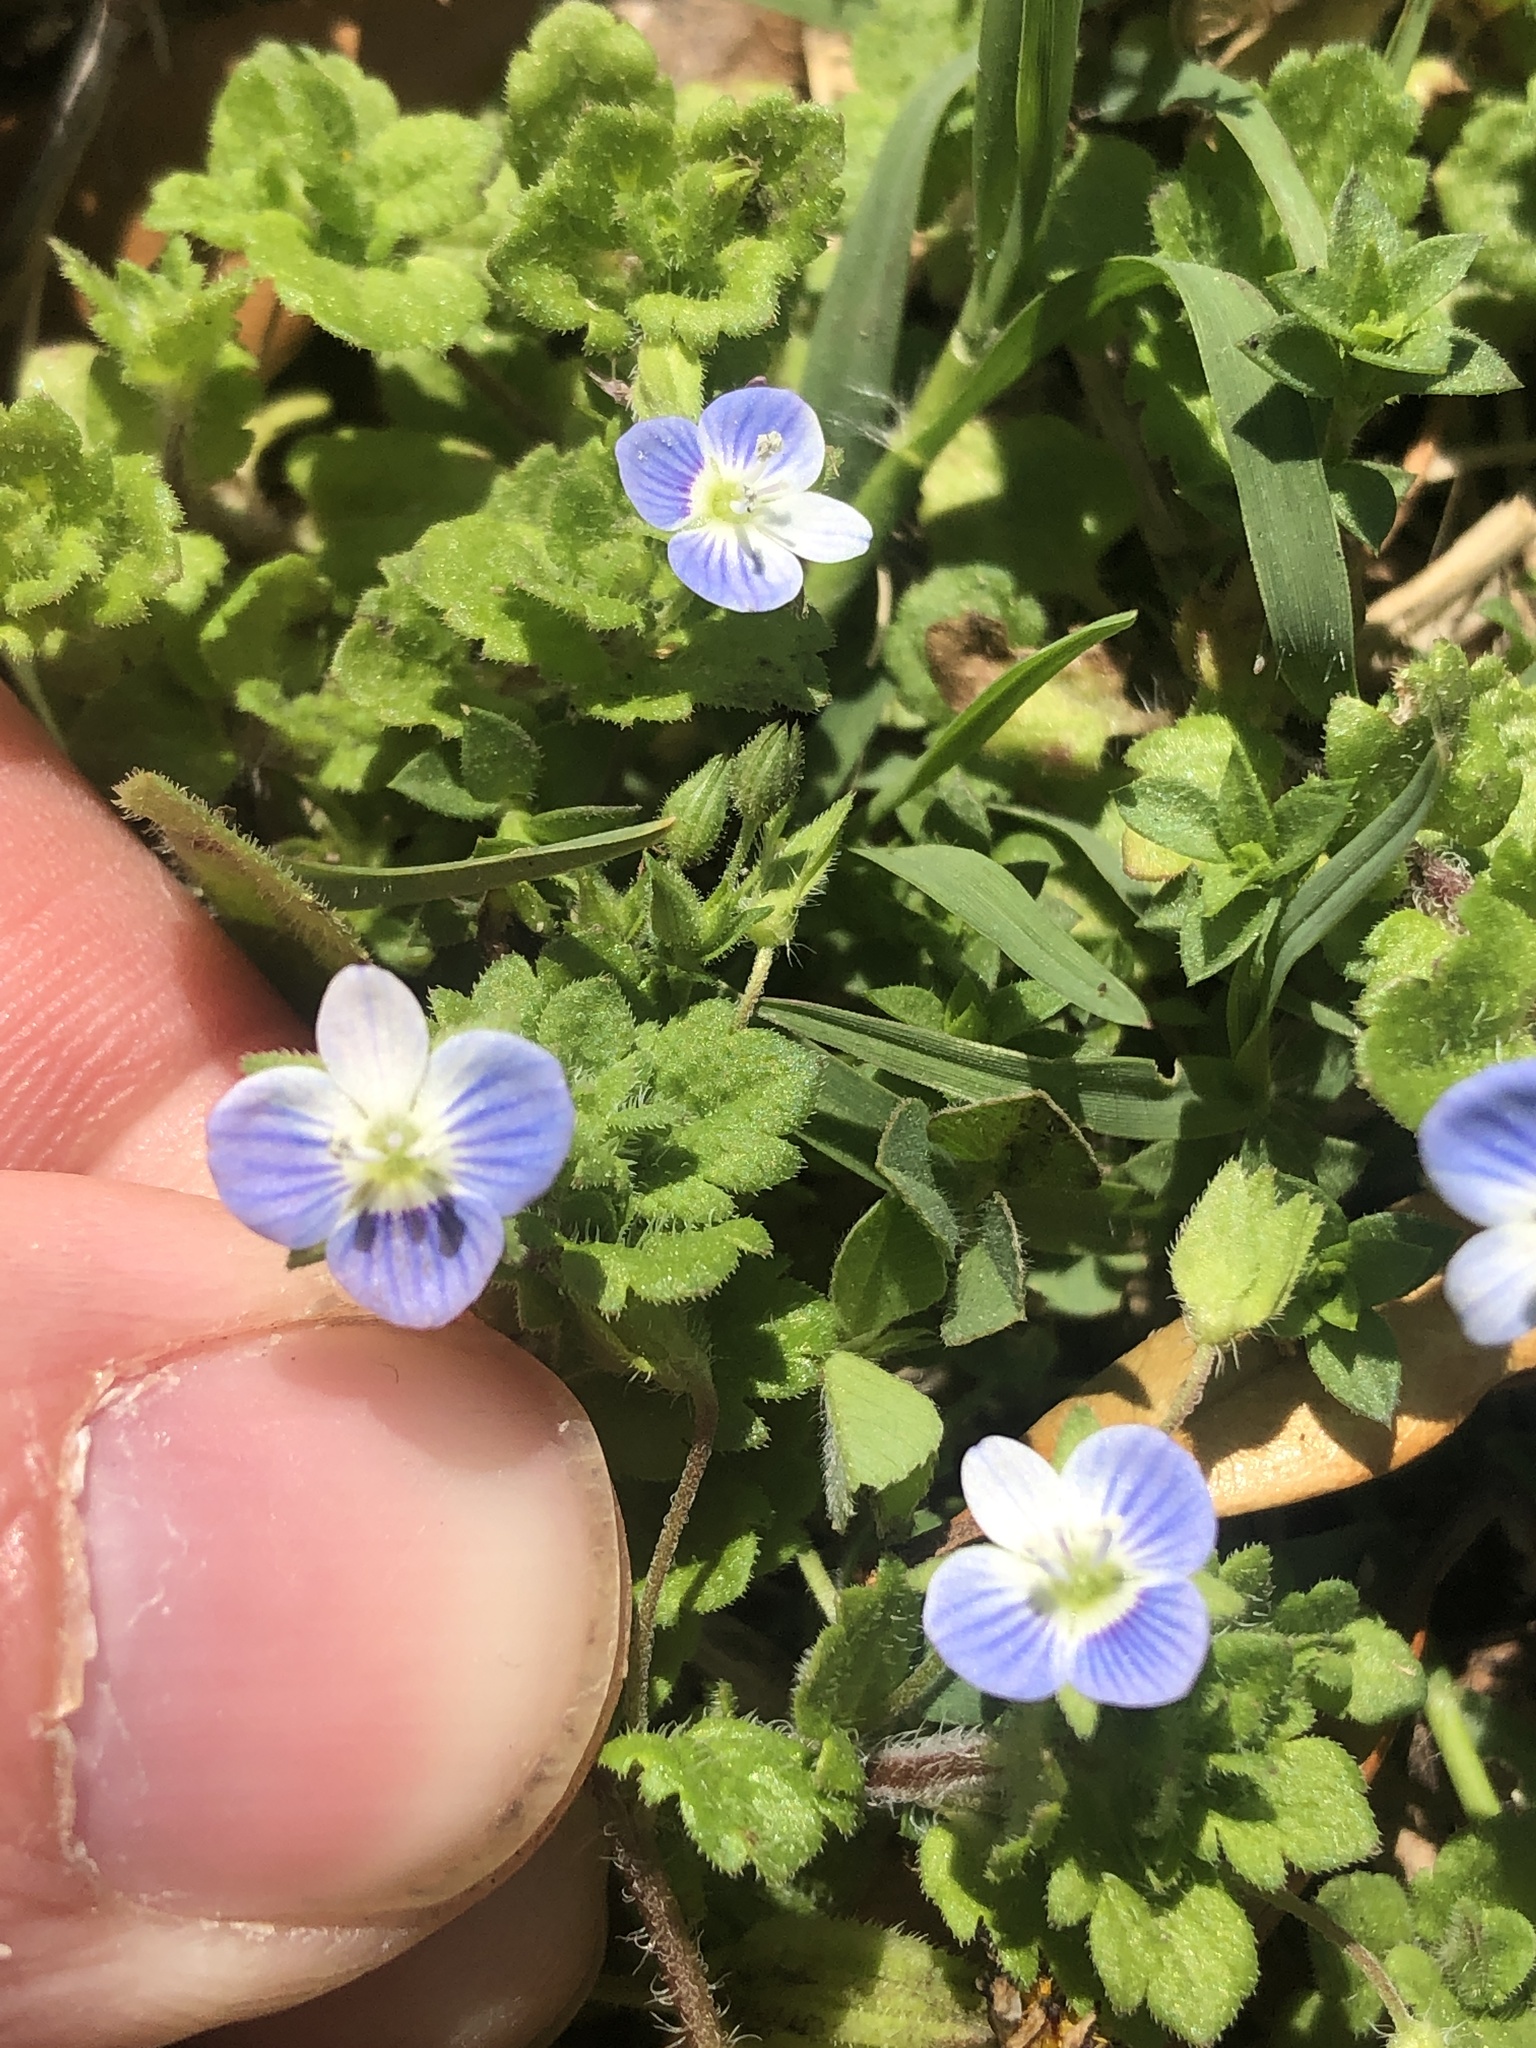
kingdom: Plantae
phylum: Tracheophyta
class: Magnoliopsida
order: Lamiales
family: Plantaginaceae
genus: Veronica
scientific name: Veronica persica
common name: Common field-speedwell
